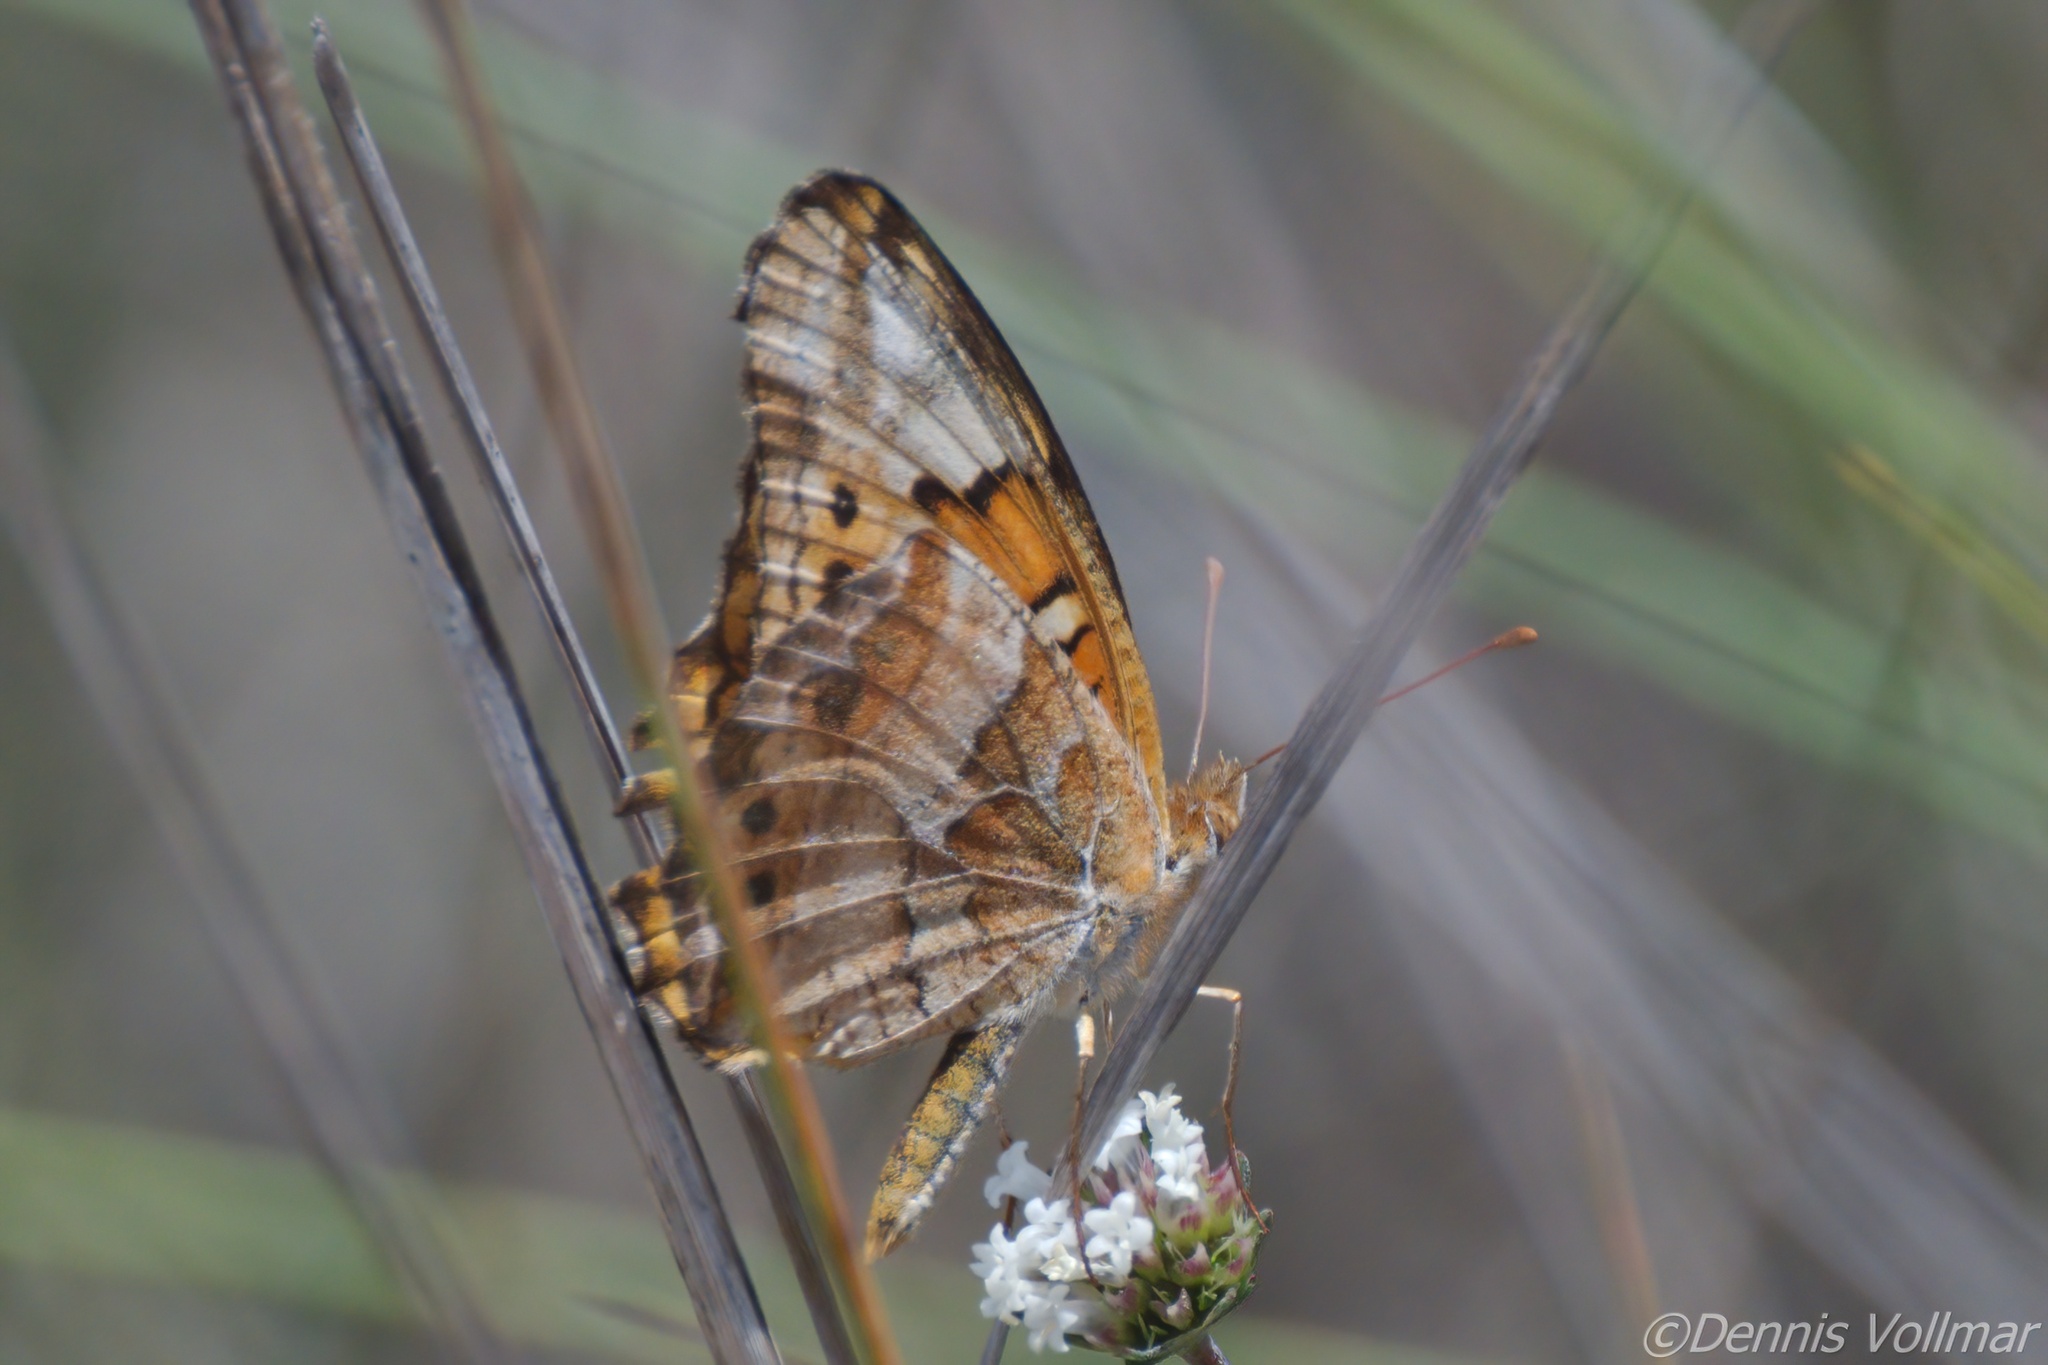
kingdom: Animalia
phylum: Arthropoda
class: Insecta
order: Lepidoptera
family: Nymphalidae
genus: Euptoieta
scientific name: Euptoieta claudia
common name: Variegated fritillary
